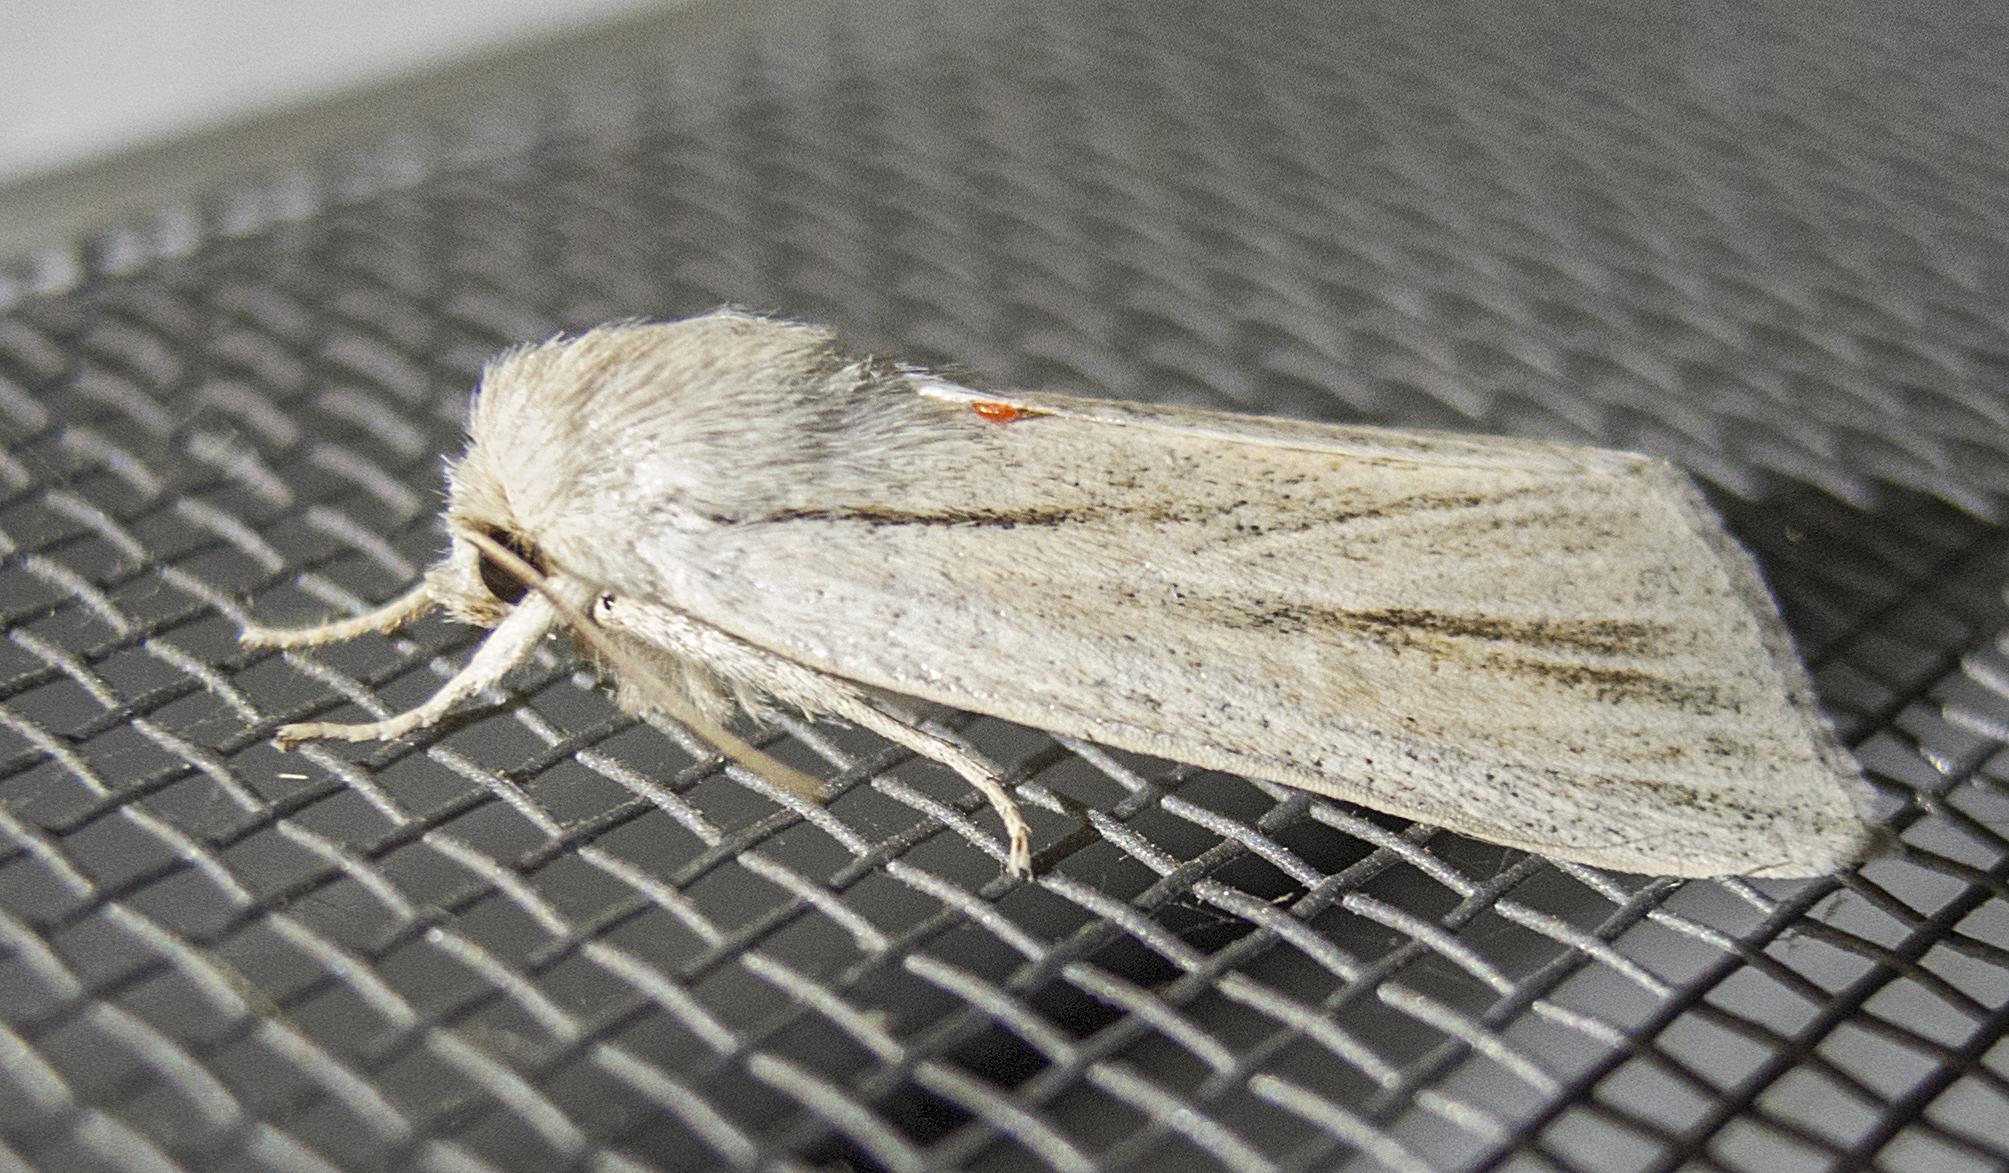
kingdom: Animalia
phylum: Arthropoda
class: Insecta
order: Lepidoptera
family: Noctuidae
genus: Simyra
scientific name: Simyra albovenosa
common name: Reed dagger
